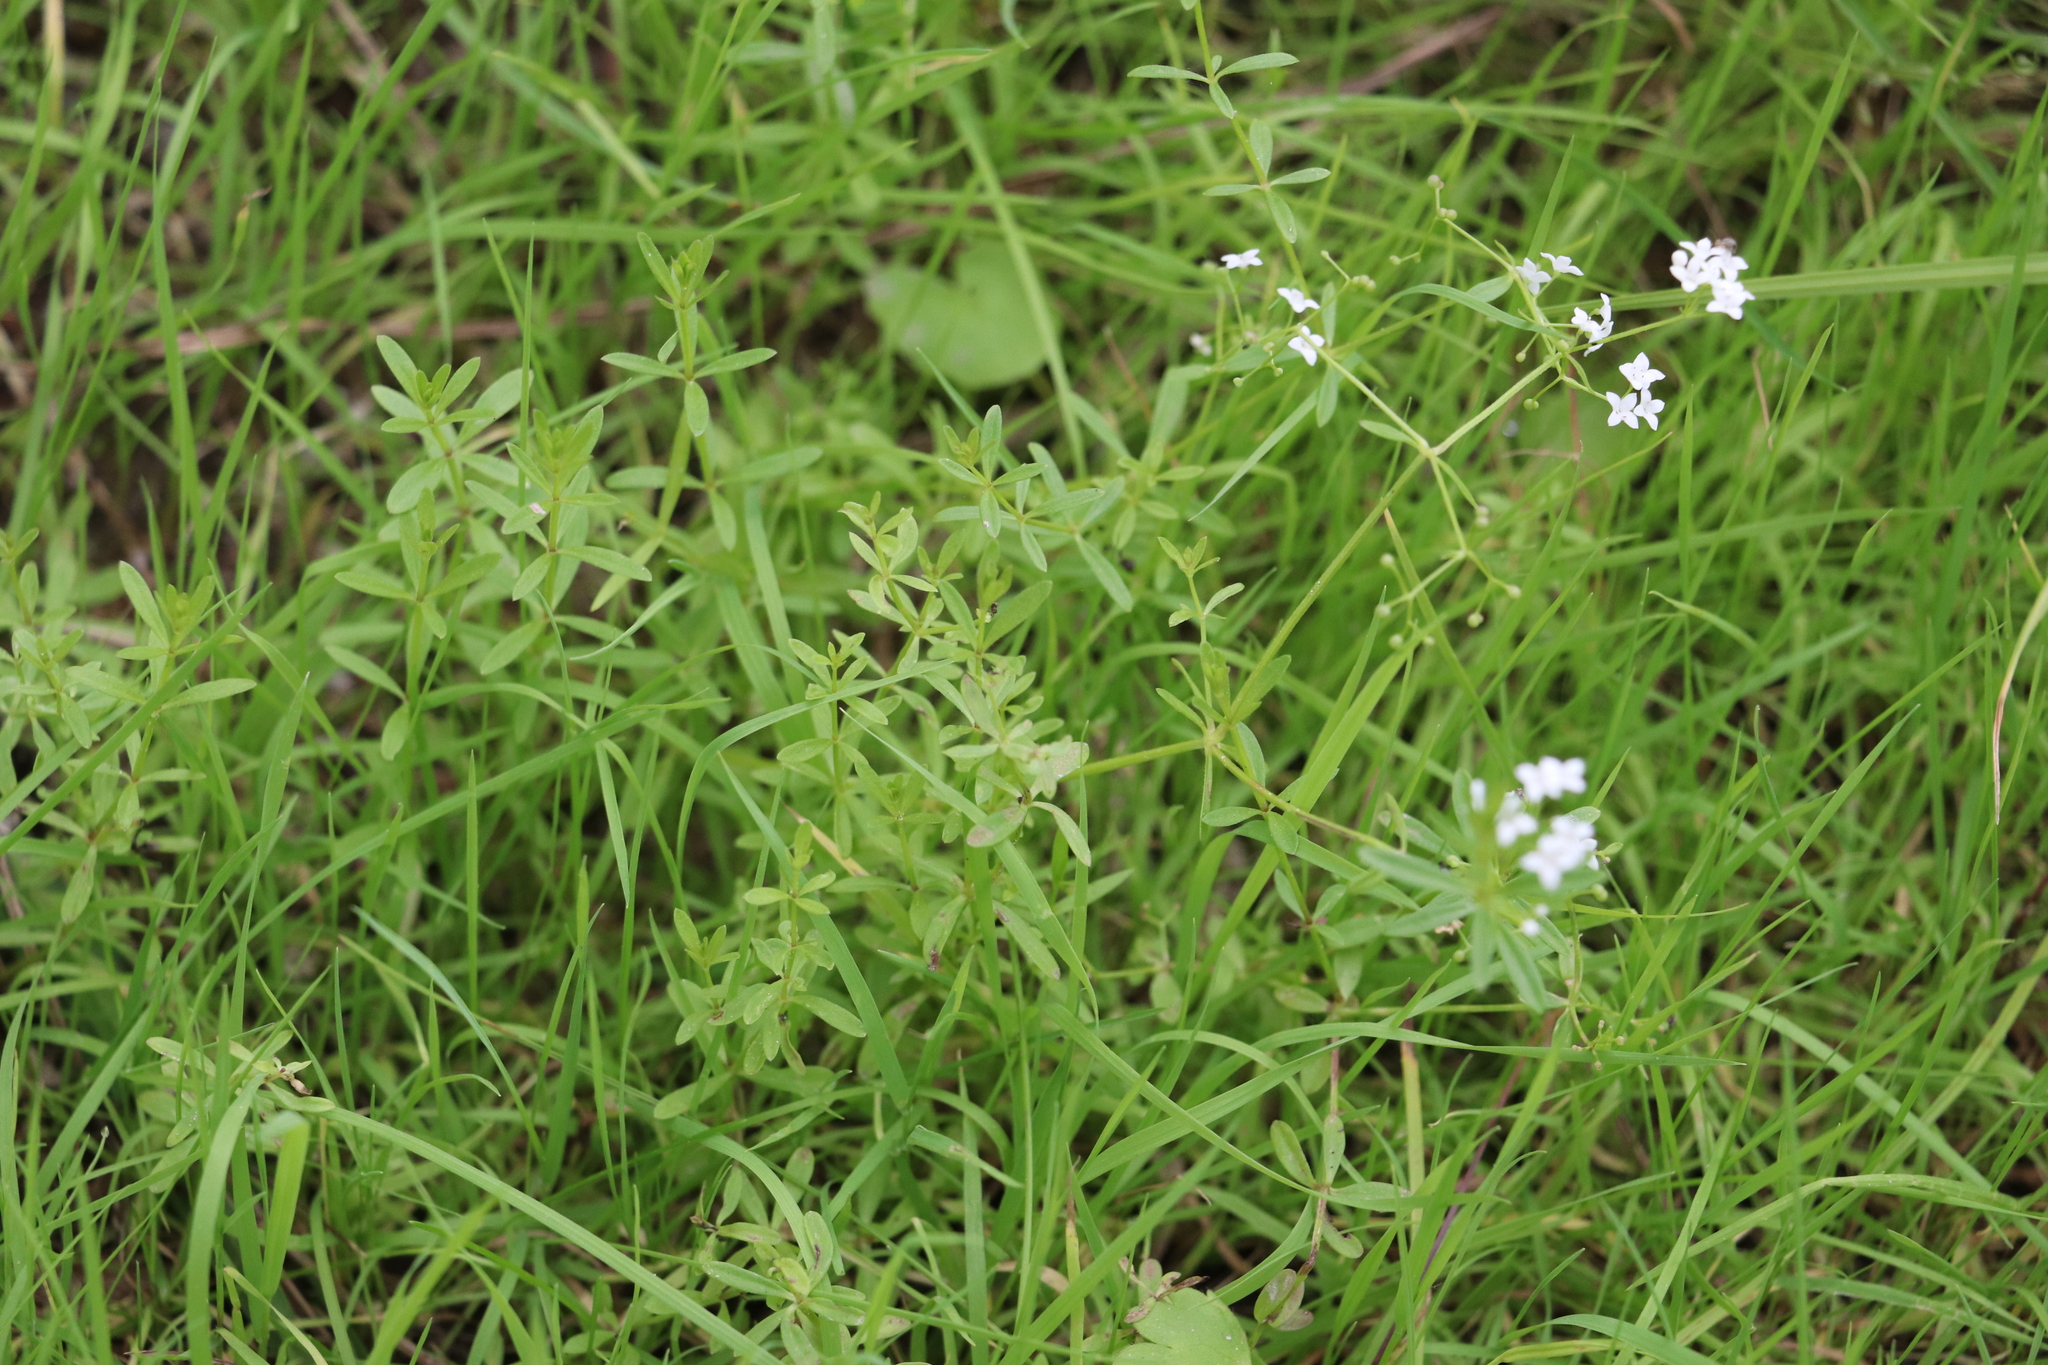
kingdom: Plantae
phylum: Tracheophyta
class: Magnoliopsida
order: Gentianales
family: Rubiaceae
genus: Galium
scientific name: Galium palustre
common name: Common marsh-bedstraw
